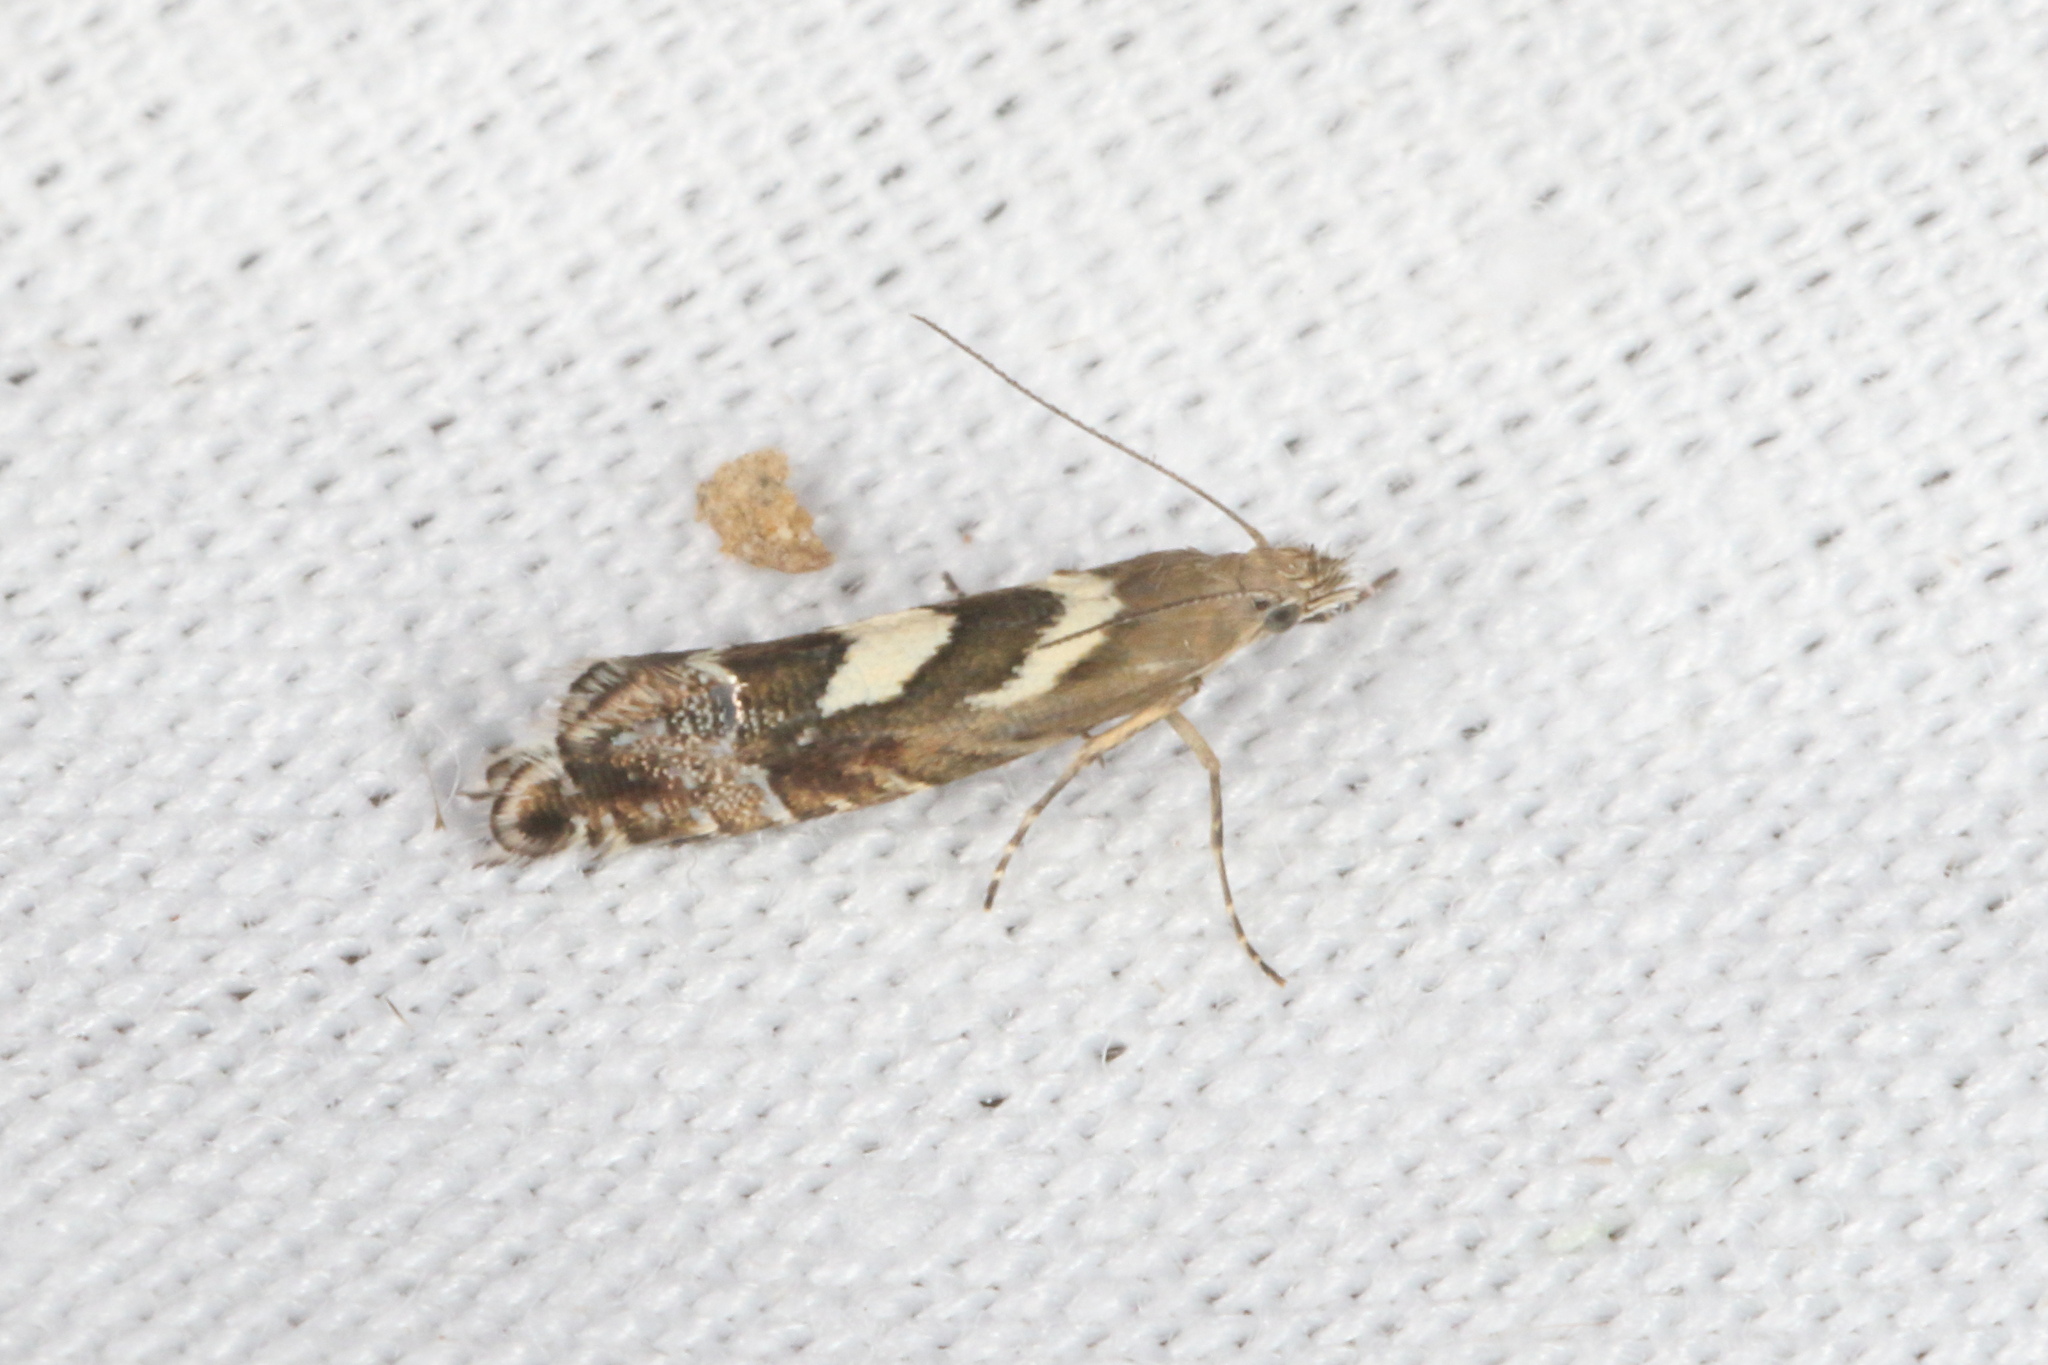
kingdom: Animalia
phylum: Arthropoda
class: Insecta
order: Lepidoptera
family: Glyphipterigidae
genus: Glyphipterix
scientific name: Glyphipterix asteronota
